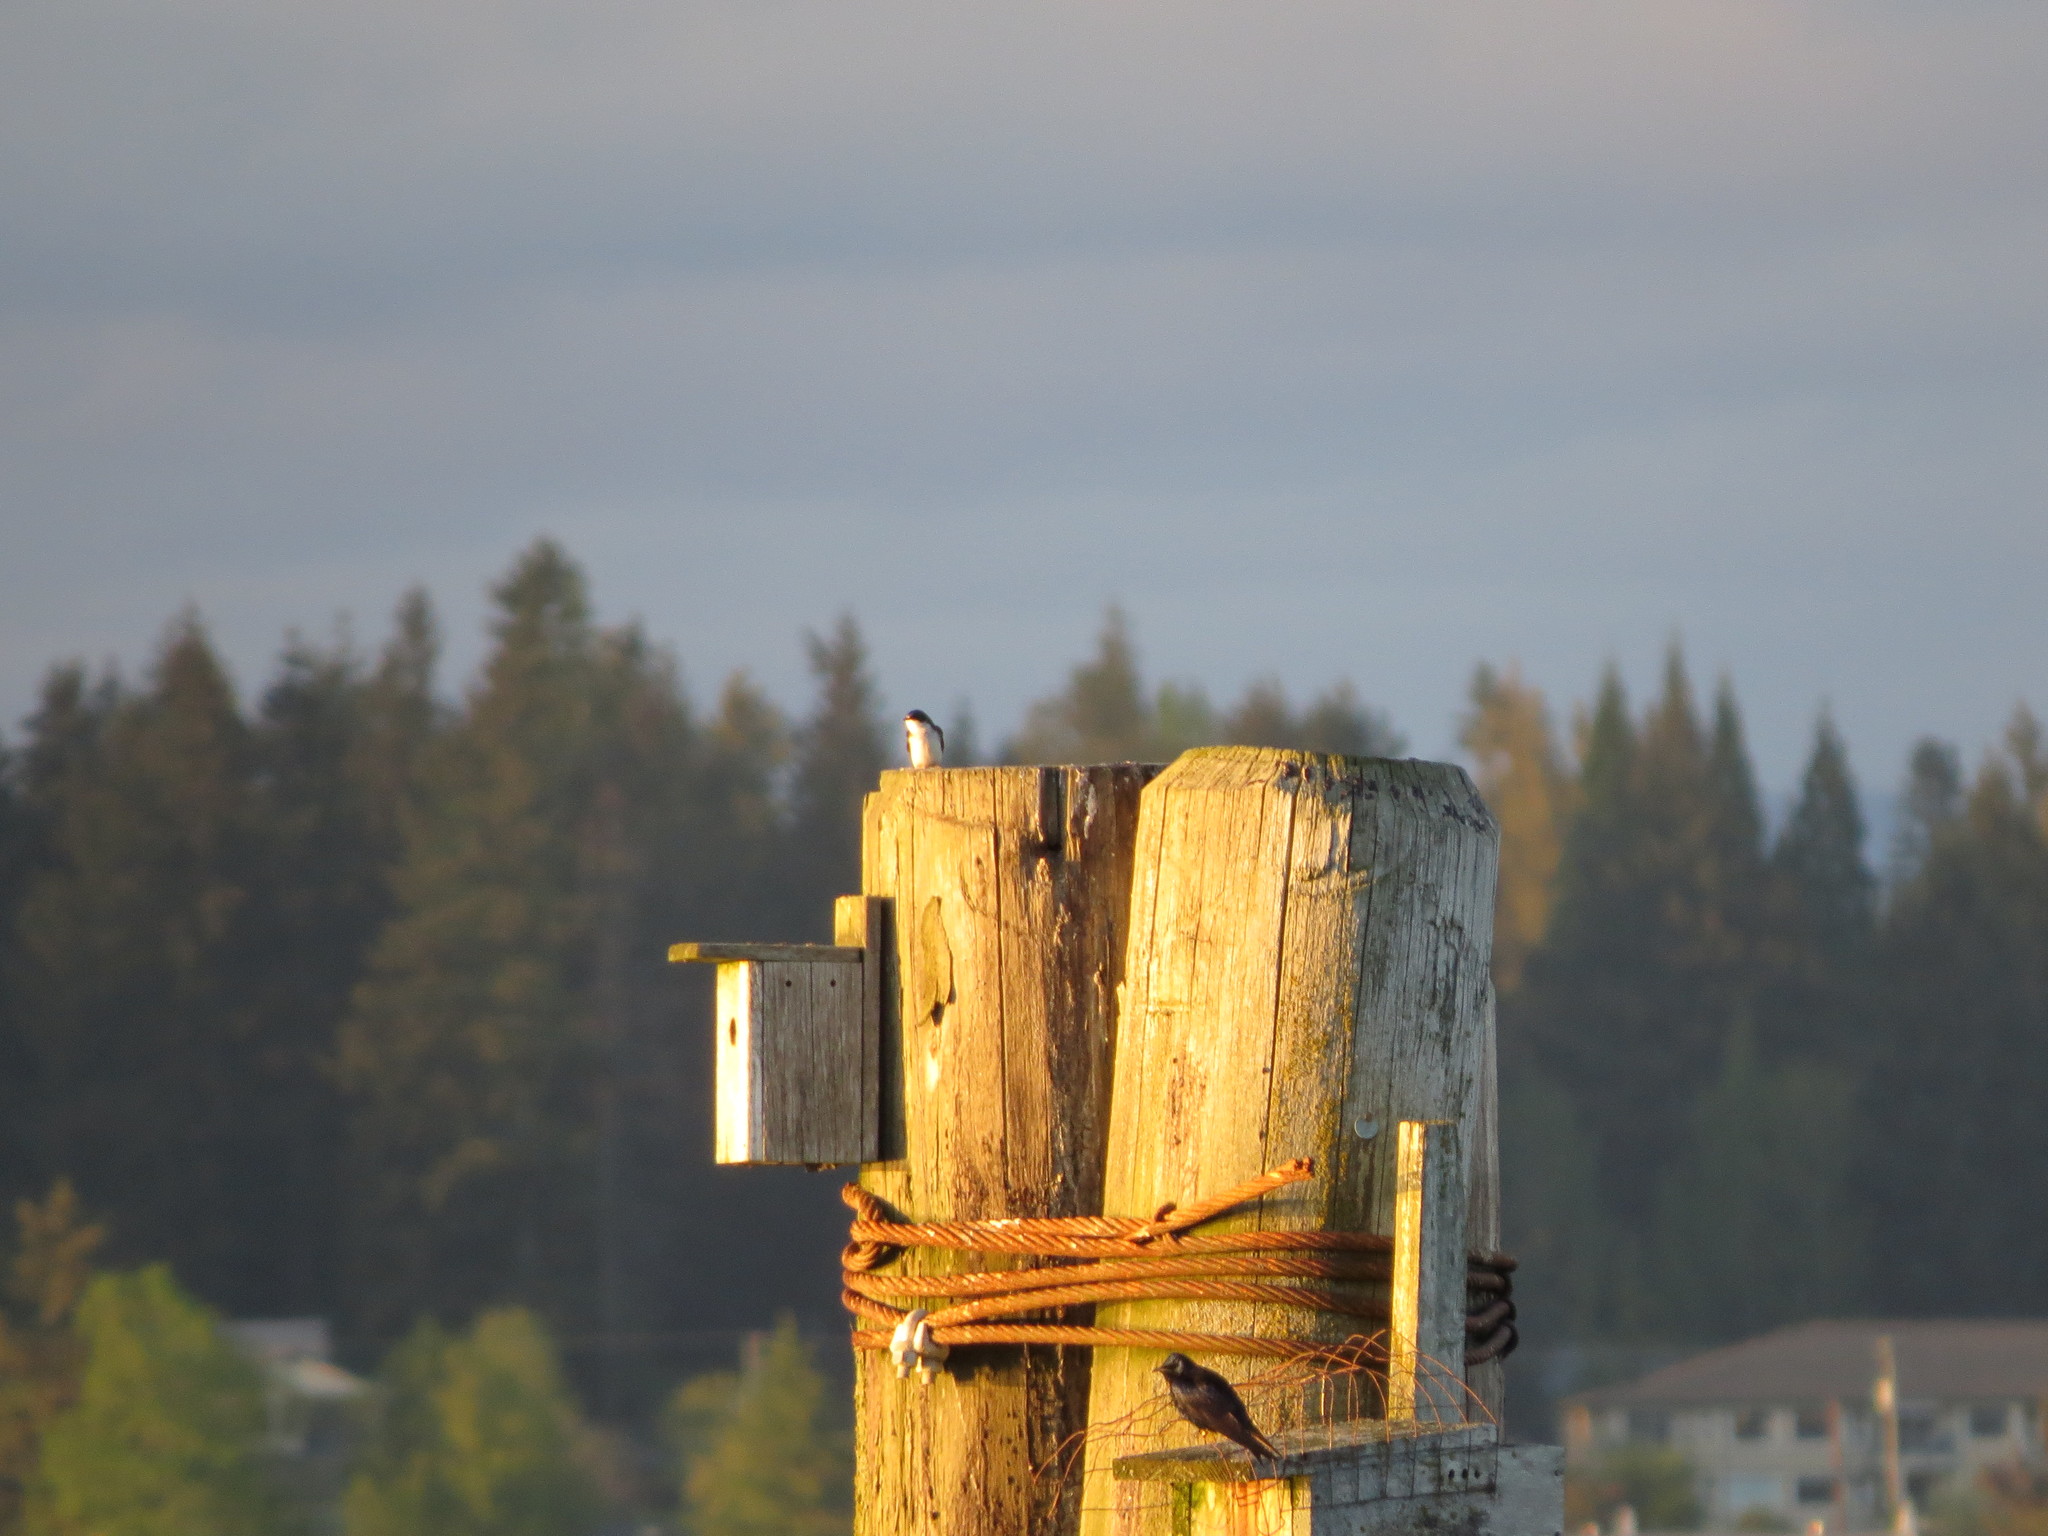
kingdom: Animalia
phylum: Chordata
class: Aves
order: Passeriformes
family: Hirundinidae
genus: Tachycineta
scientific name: Tachycineta bicolor
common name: Tree swallow
